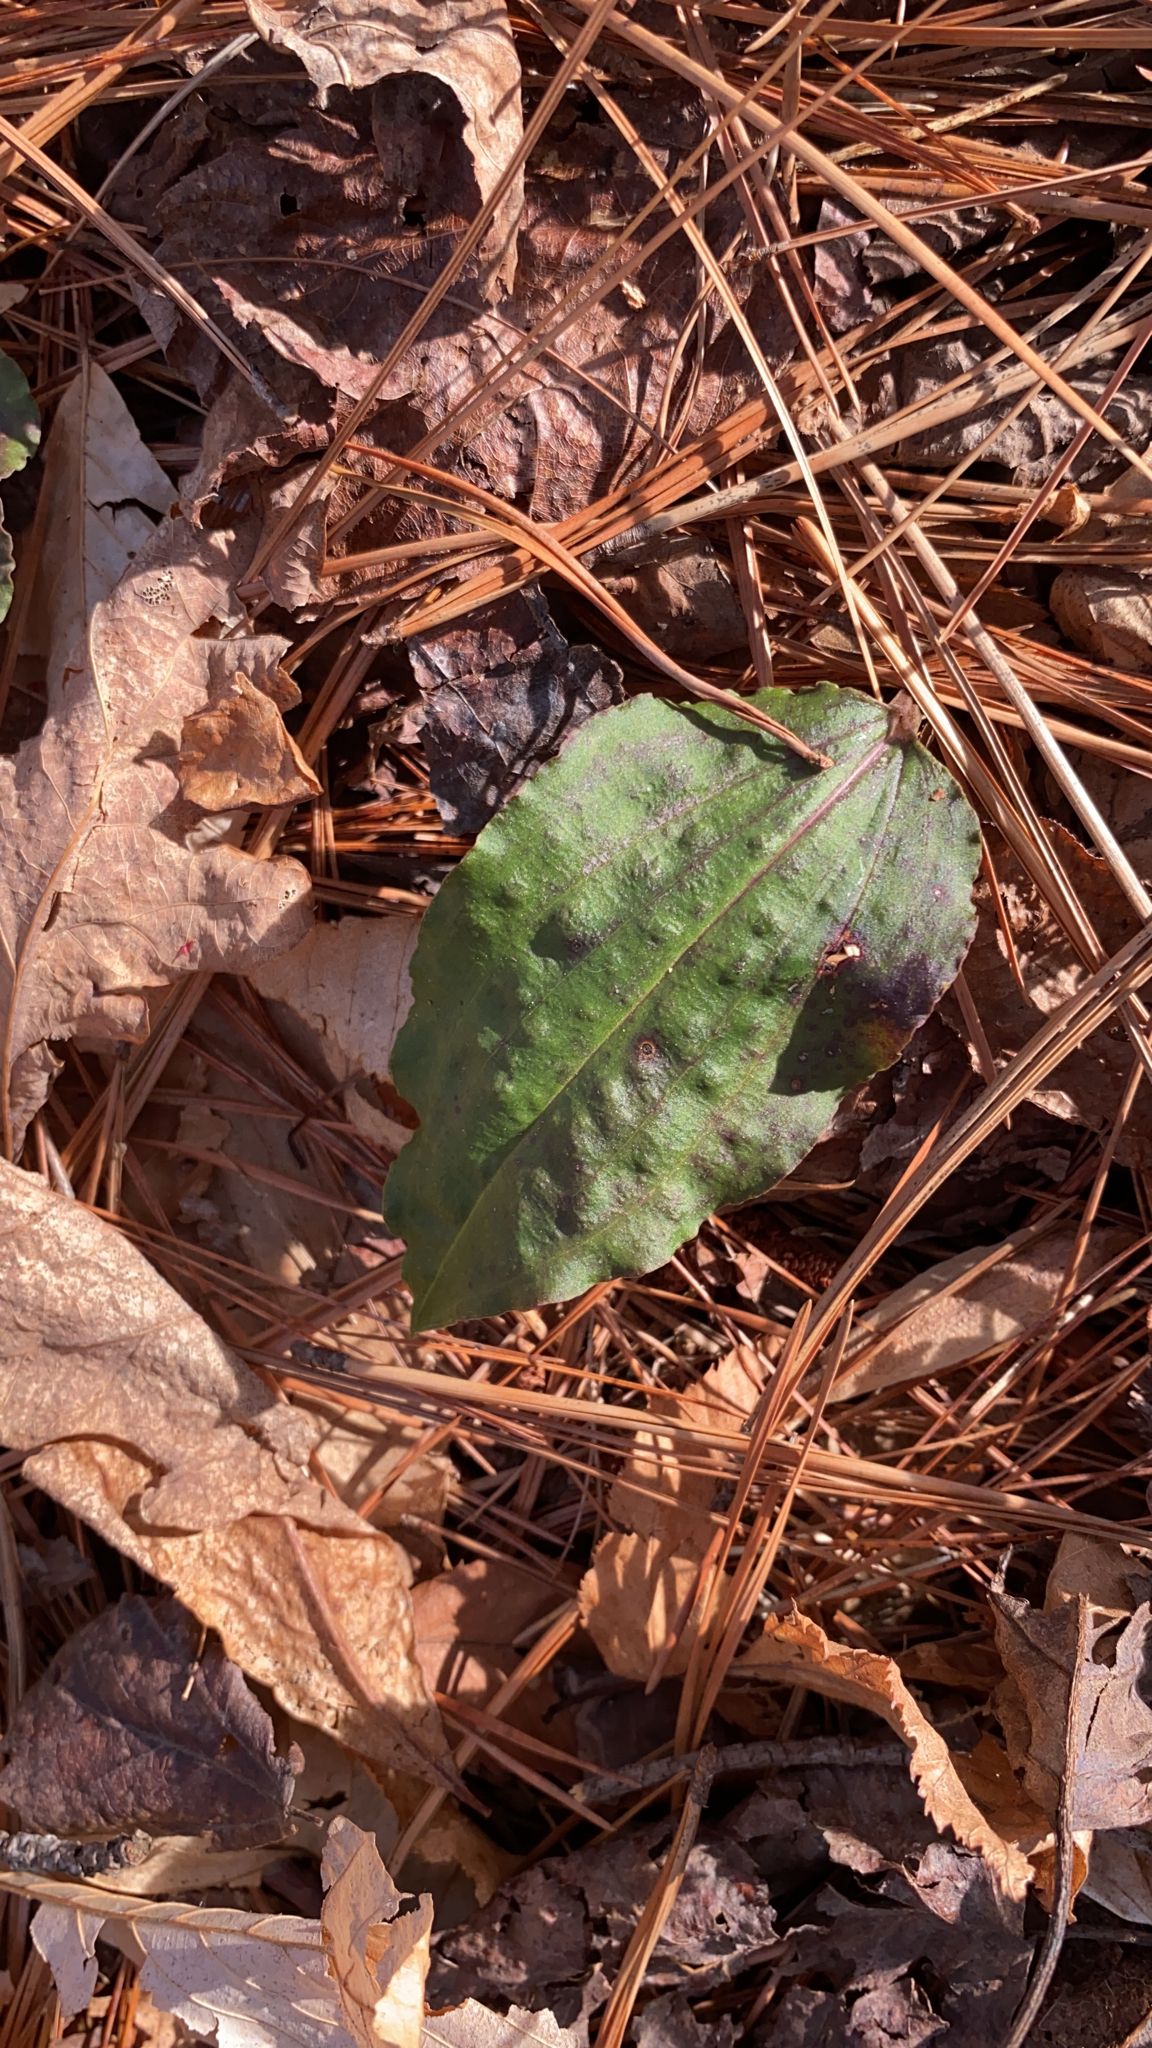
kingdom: Plantae
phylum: Tracheophyta
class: Liliopsida
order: Asparagales
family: Orchidaceae
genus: Tipularia
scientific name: Tipularia discolor
